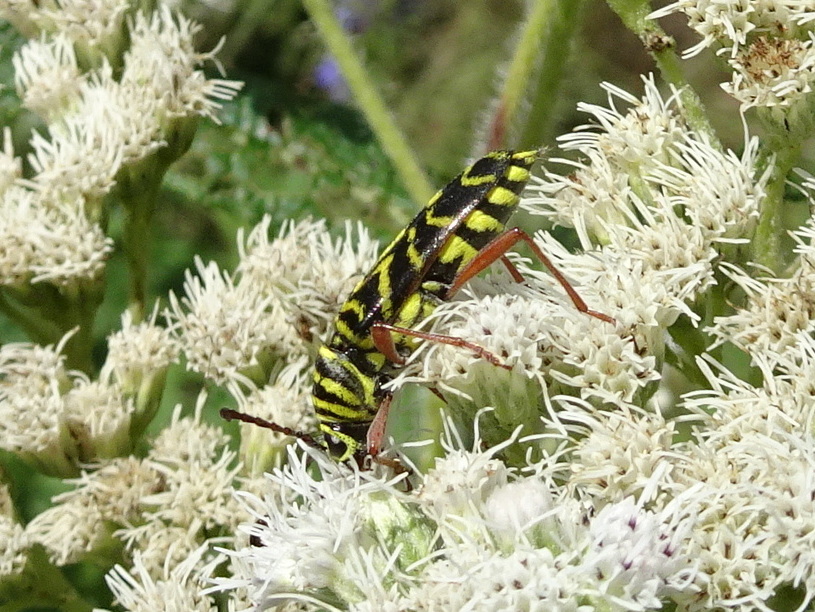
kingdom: Animalia
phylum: Arthropoda
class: Insecta
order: Coleoptera
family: Cerambycidae
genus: Megacyllene
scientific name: Megacyllene robiniae
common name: Locust borer
